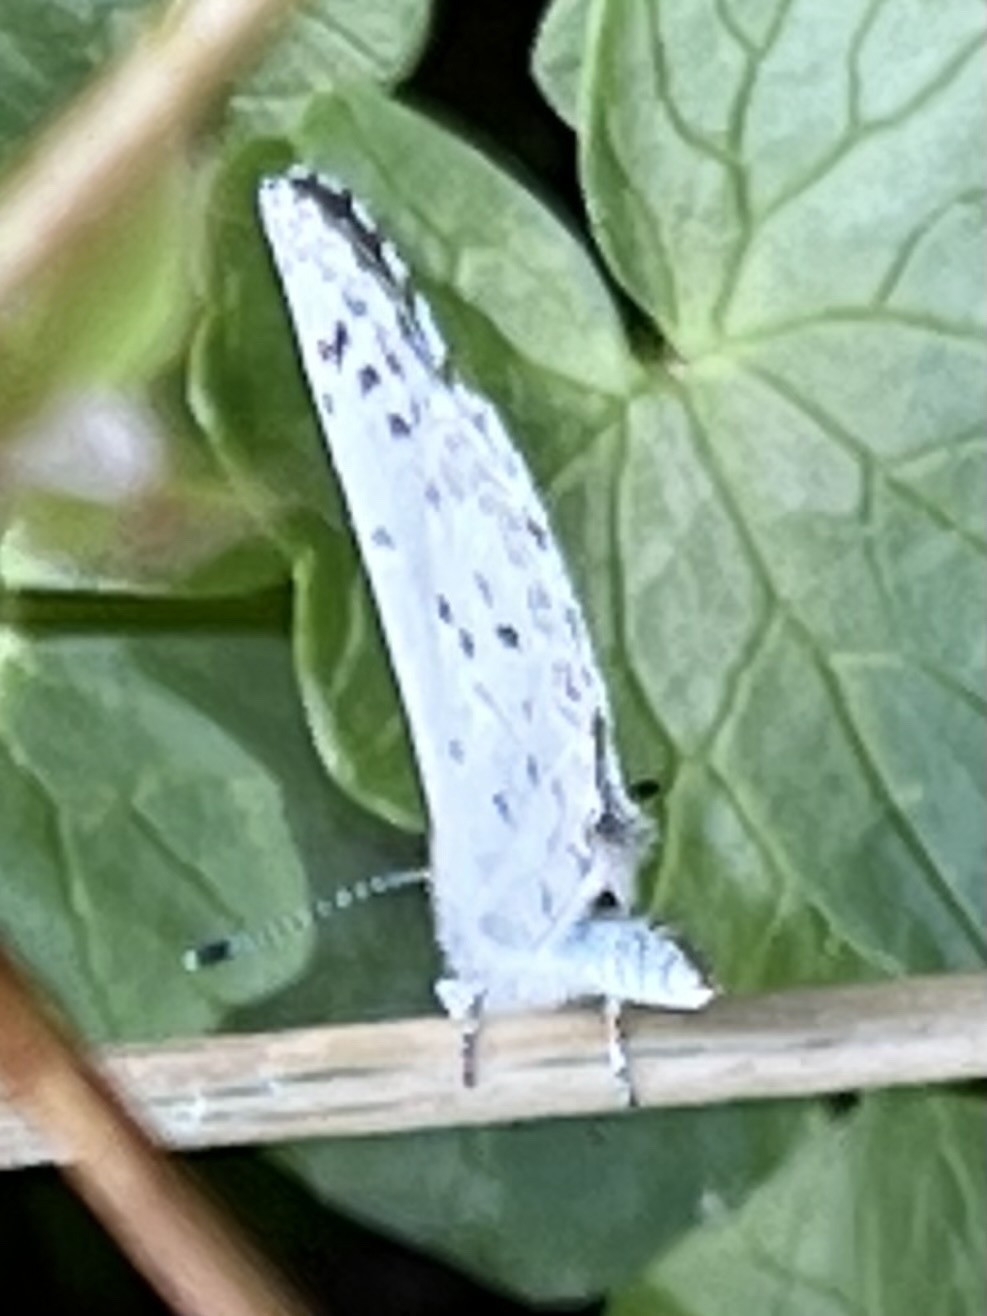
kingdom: Animalia
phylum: Arthropoda
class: Insecta
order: Lepidoptera
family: Lycaenidae
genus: Cyaniris
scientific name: Cyaniris neglecta
